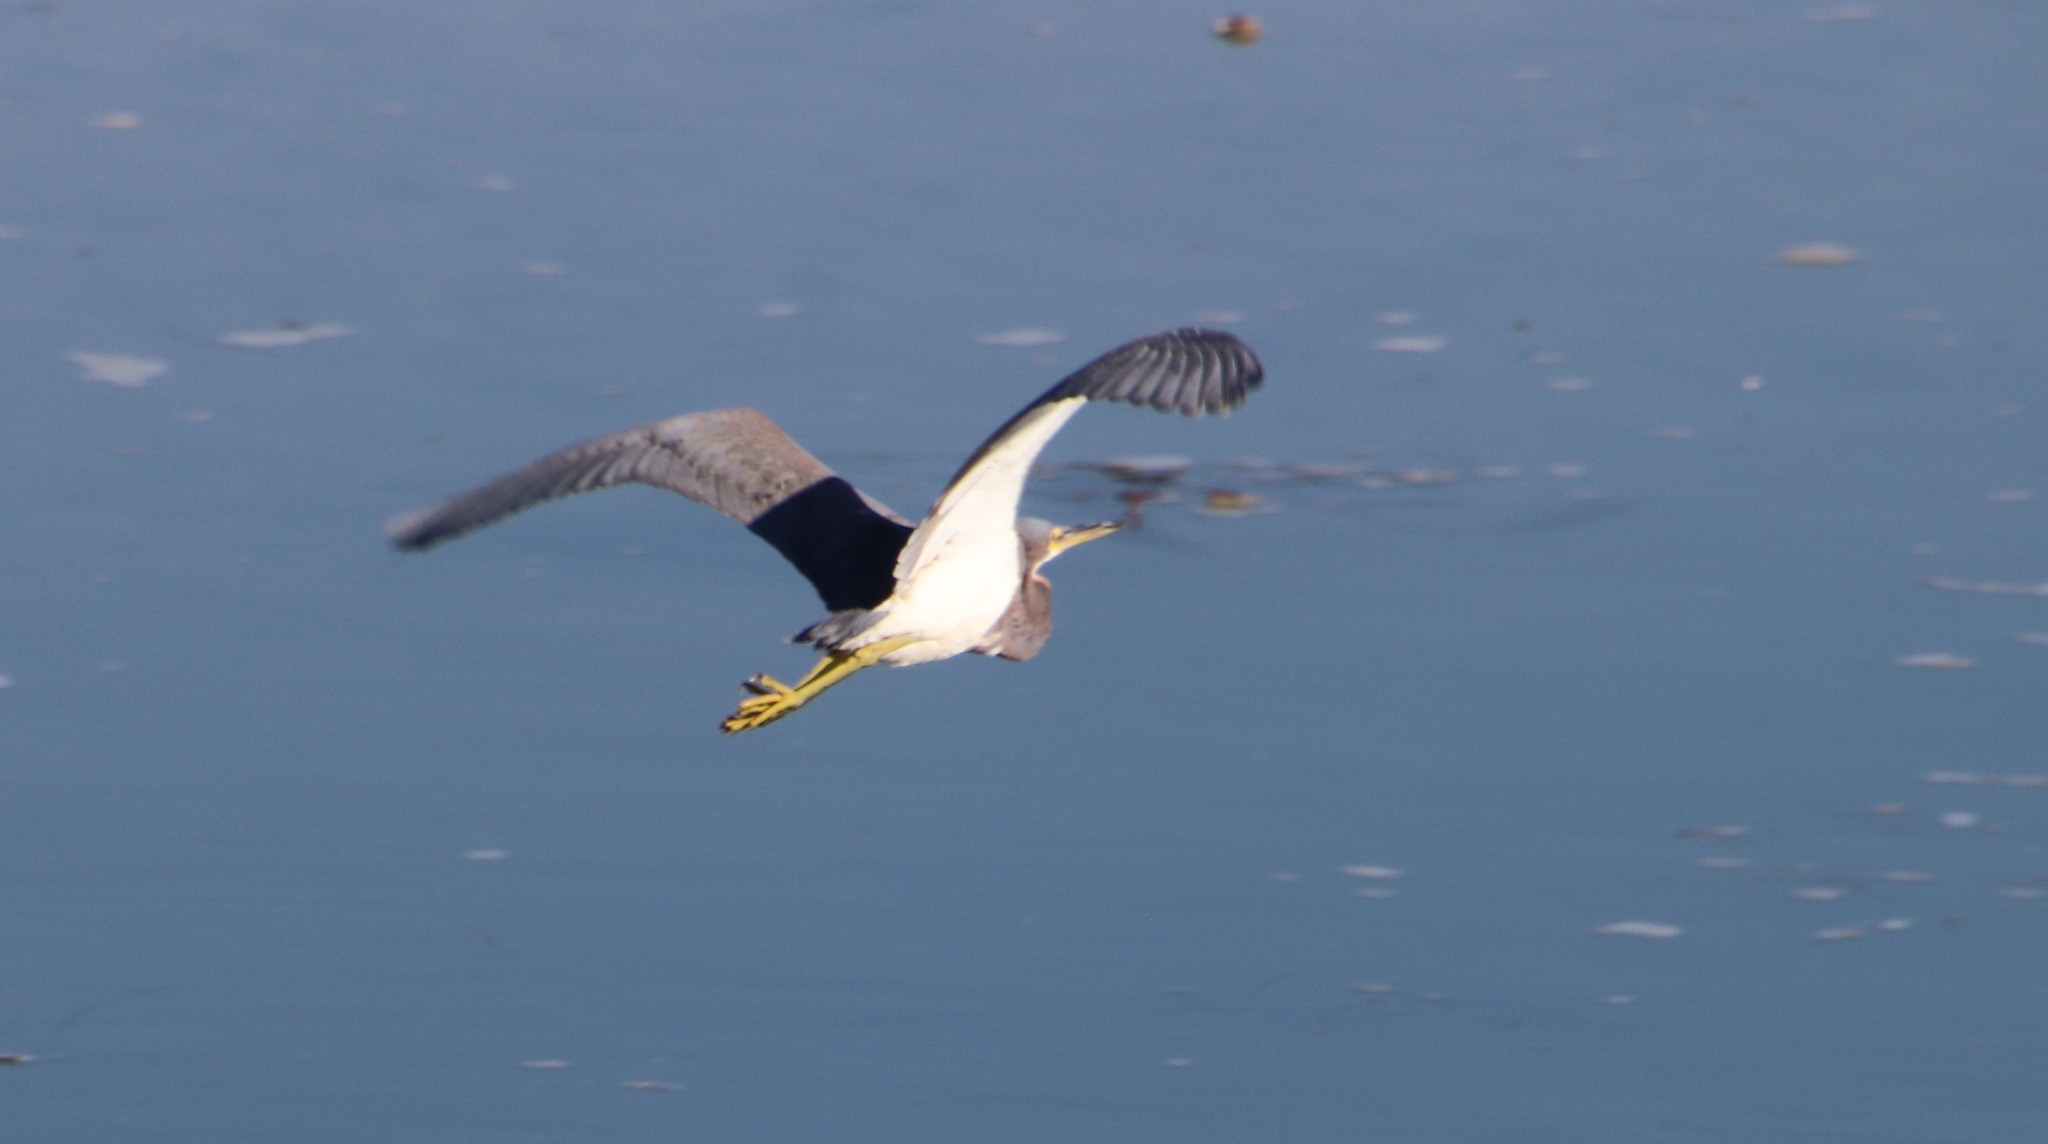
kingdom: Animalia
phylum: Chordata
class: Aves
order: Pelecaniformes
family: Ardeidae
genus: Egretta
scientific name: Egretta tricolor
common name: Tricolored heron
